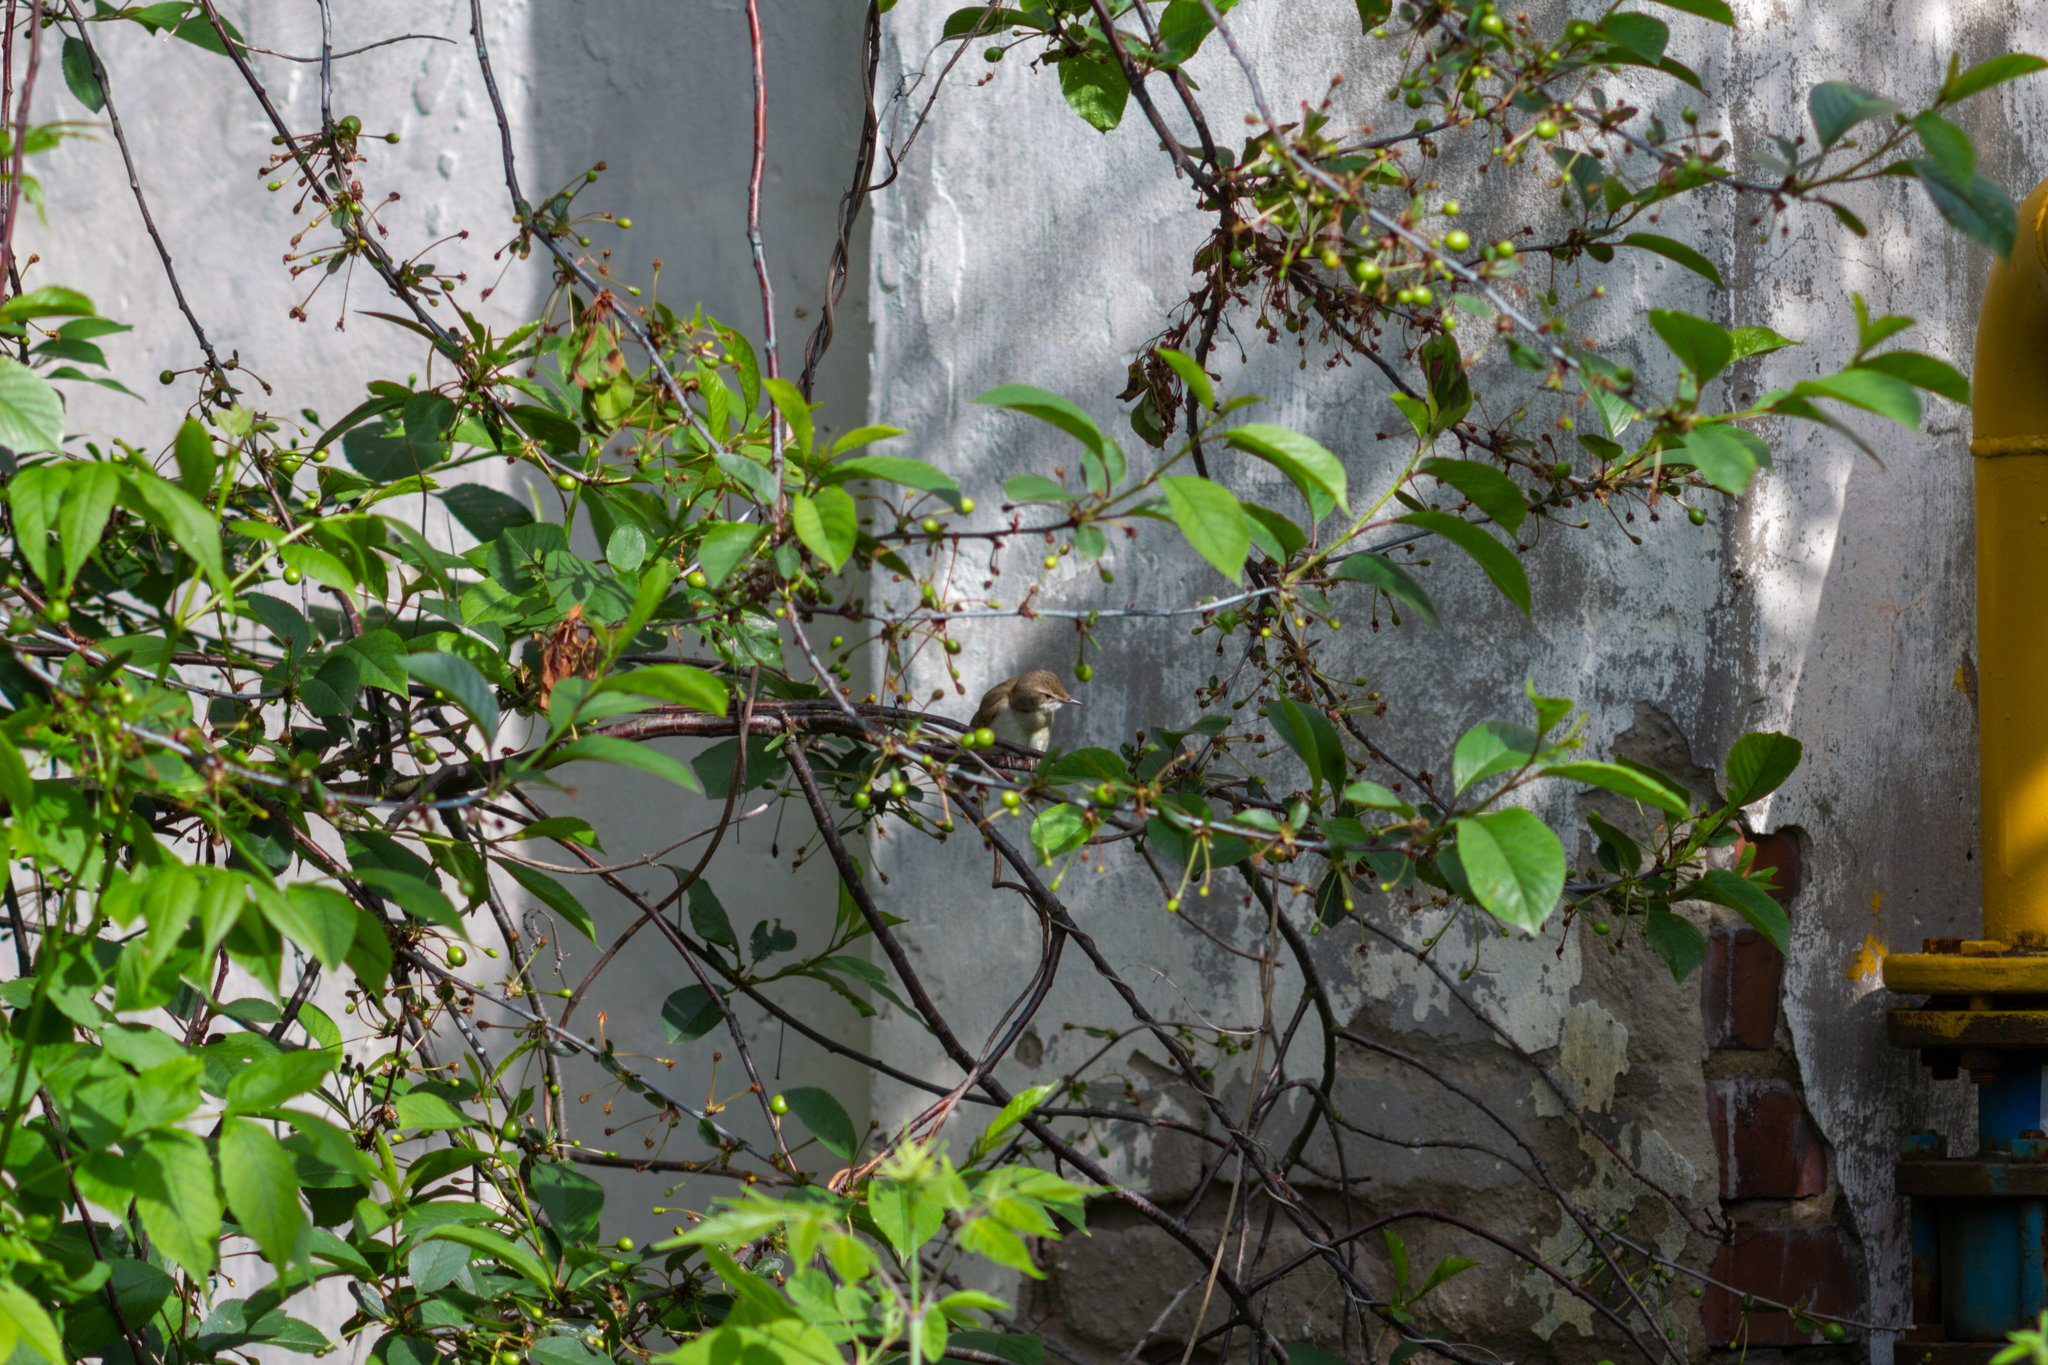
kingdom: Animalia
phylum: Chordata
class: Aves
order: Passeriformes
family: Sylviidae
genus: Sylvia
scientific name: Sylvia communis
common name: Common whitethroat
